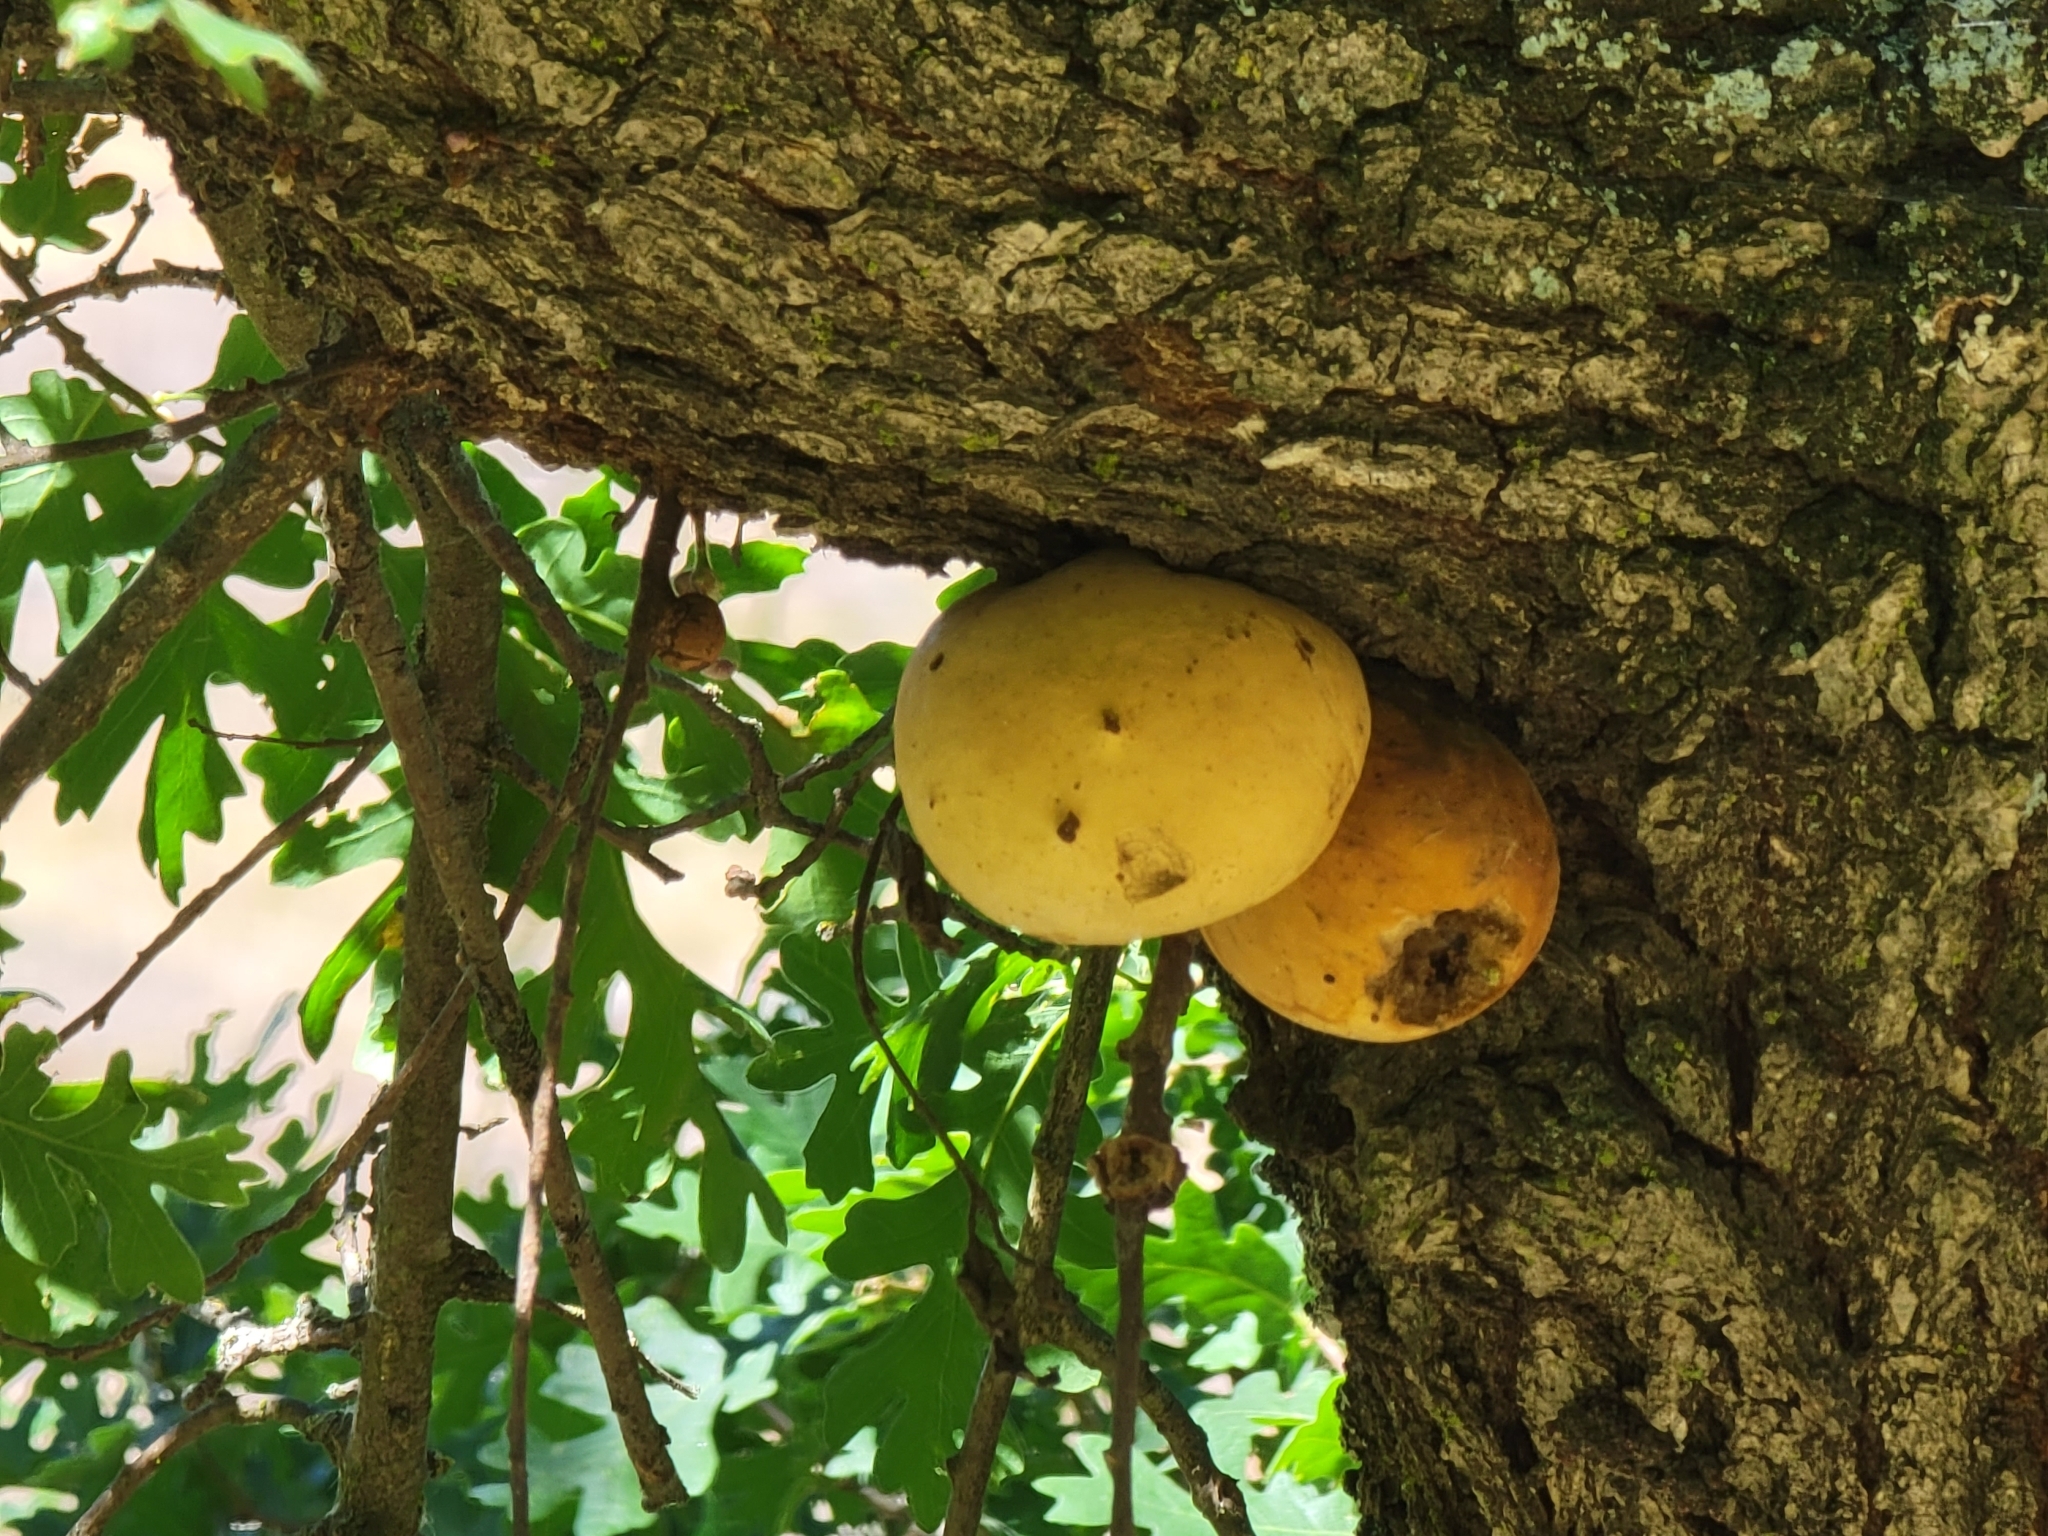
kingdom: Animalia
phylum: Arthropoda
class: Insecta
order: Hymenoptera
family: Cynipidae
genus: Andricus
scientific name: Andricus quercuscalifornicus
